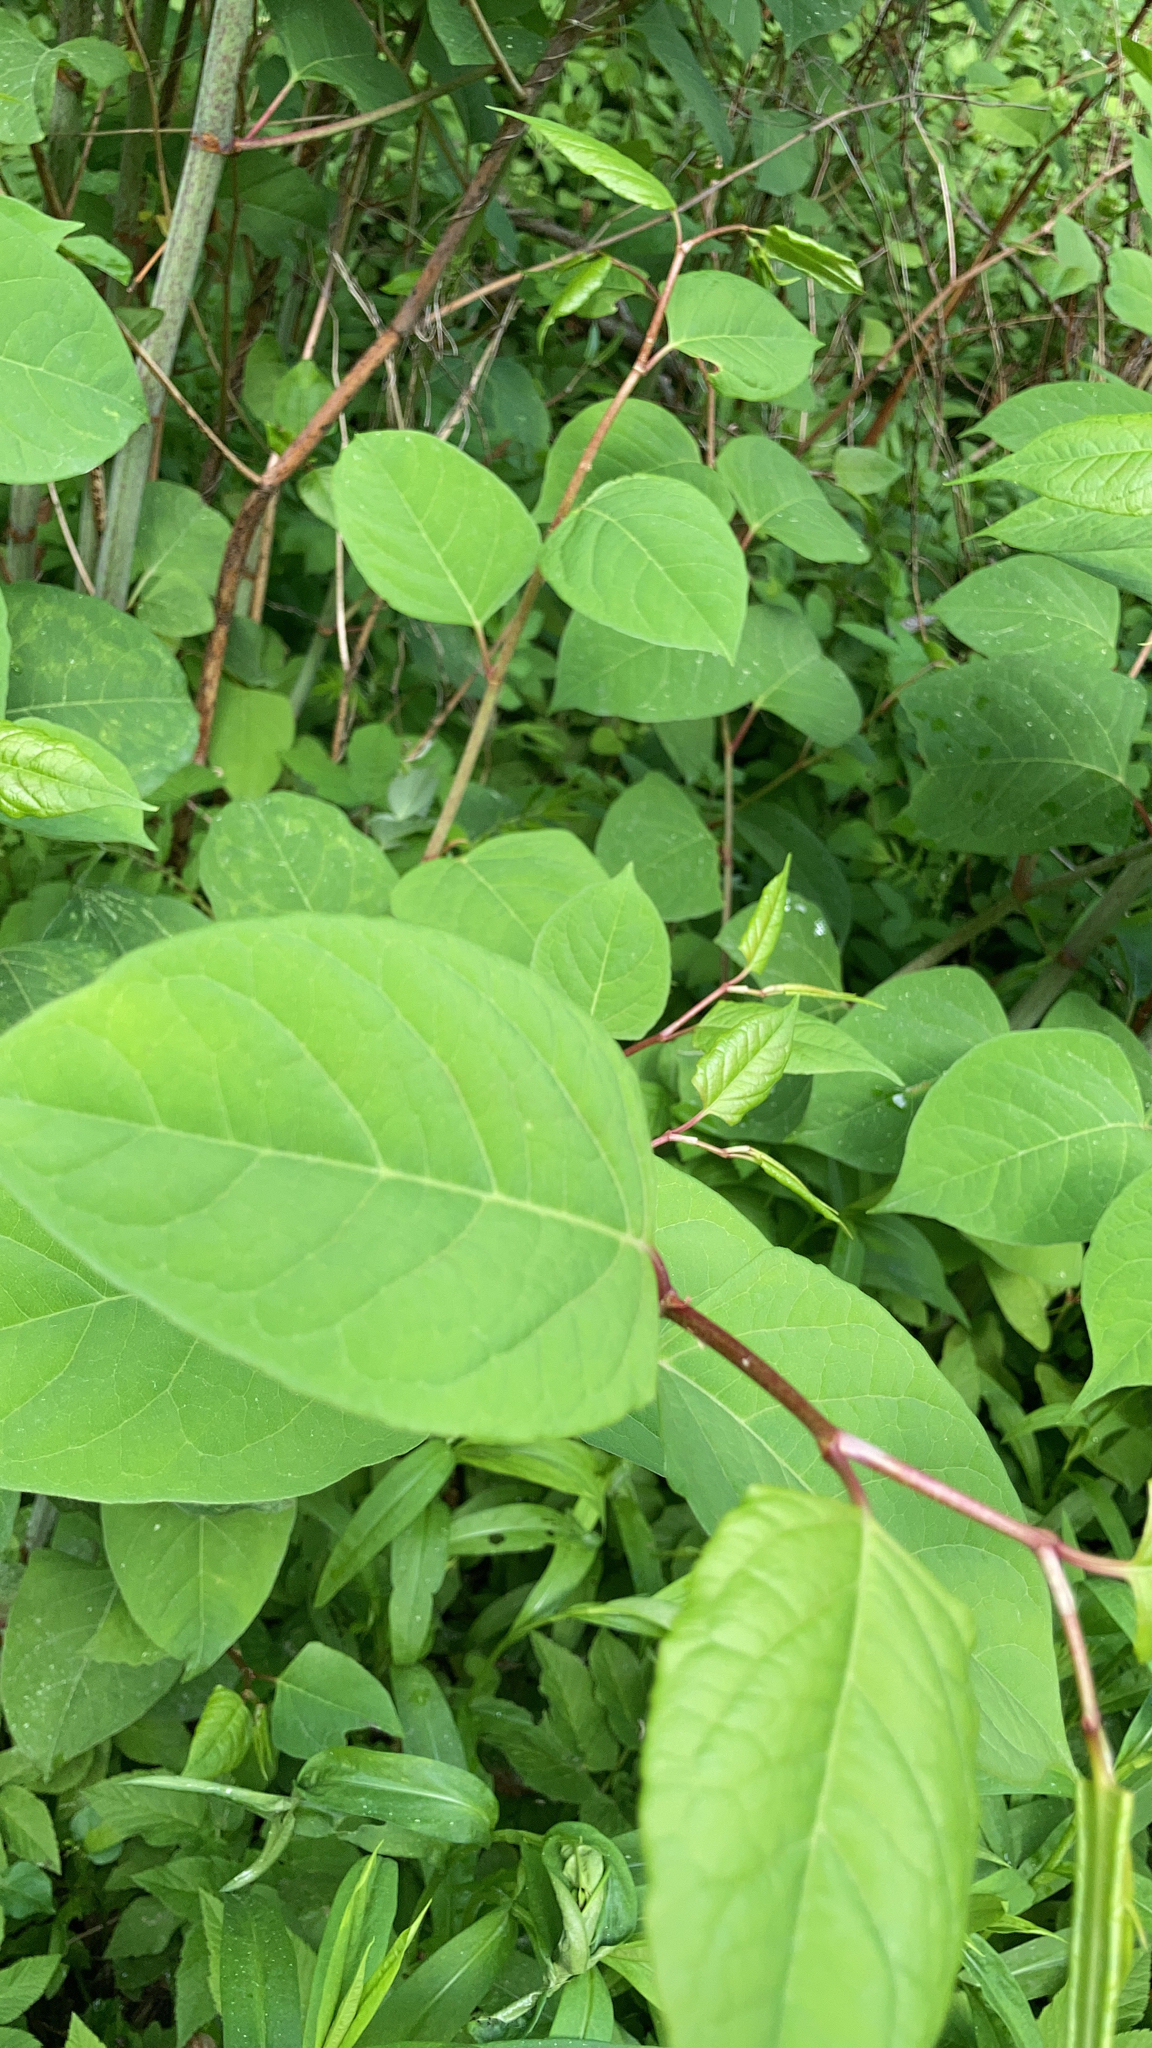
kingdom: Plantae
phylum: Tracheophyta
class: Magnoliopsida
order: Caryophyllales
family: Polygonaceae
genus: Reynoutria
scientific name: Reynoutria japonica
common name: Japanese knotweed
